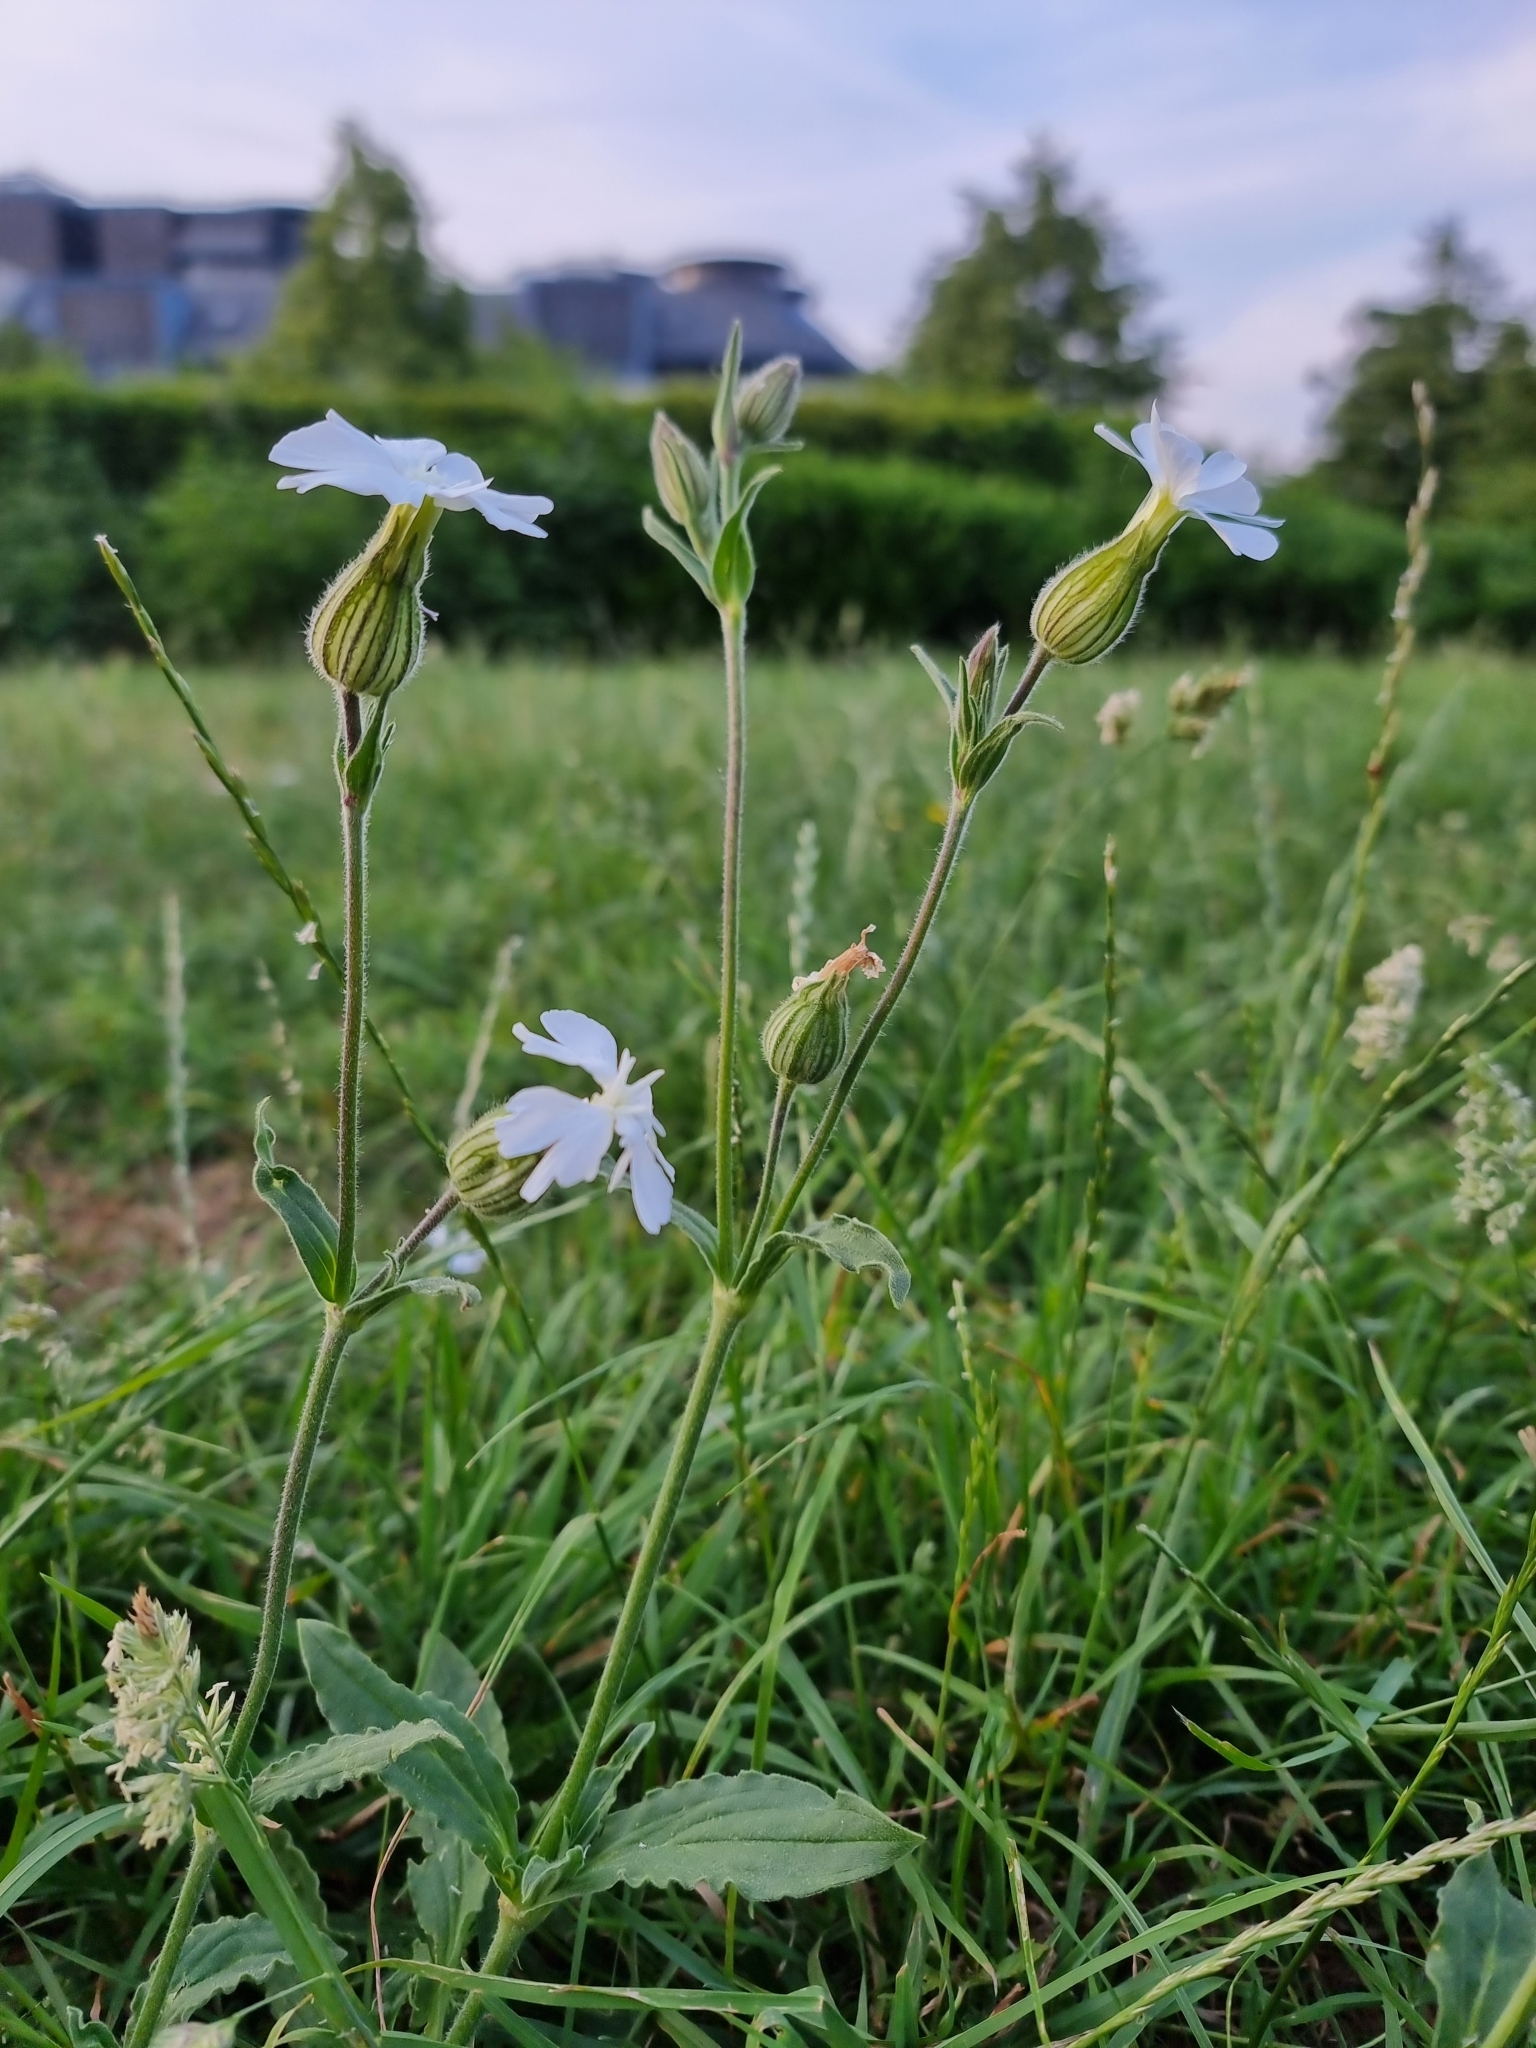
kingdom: Plantae
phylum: Tracheophyta
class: Magnoliopsida
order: Caryophyllales
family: Caryophyllaceae
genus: Silene
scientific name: Silene latifolia
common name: White campion
